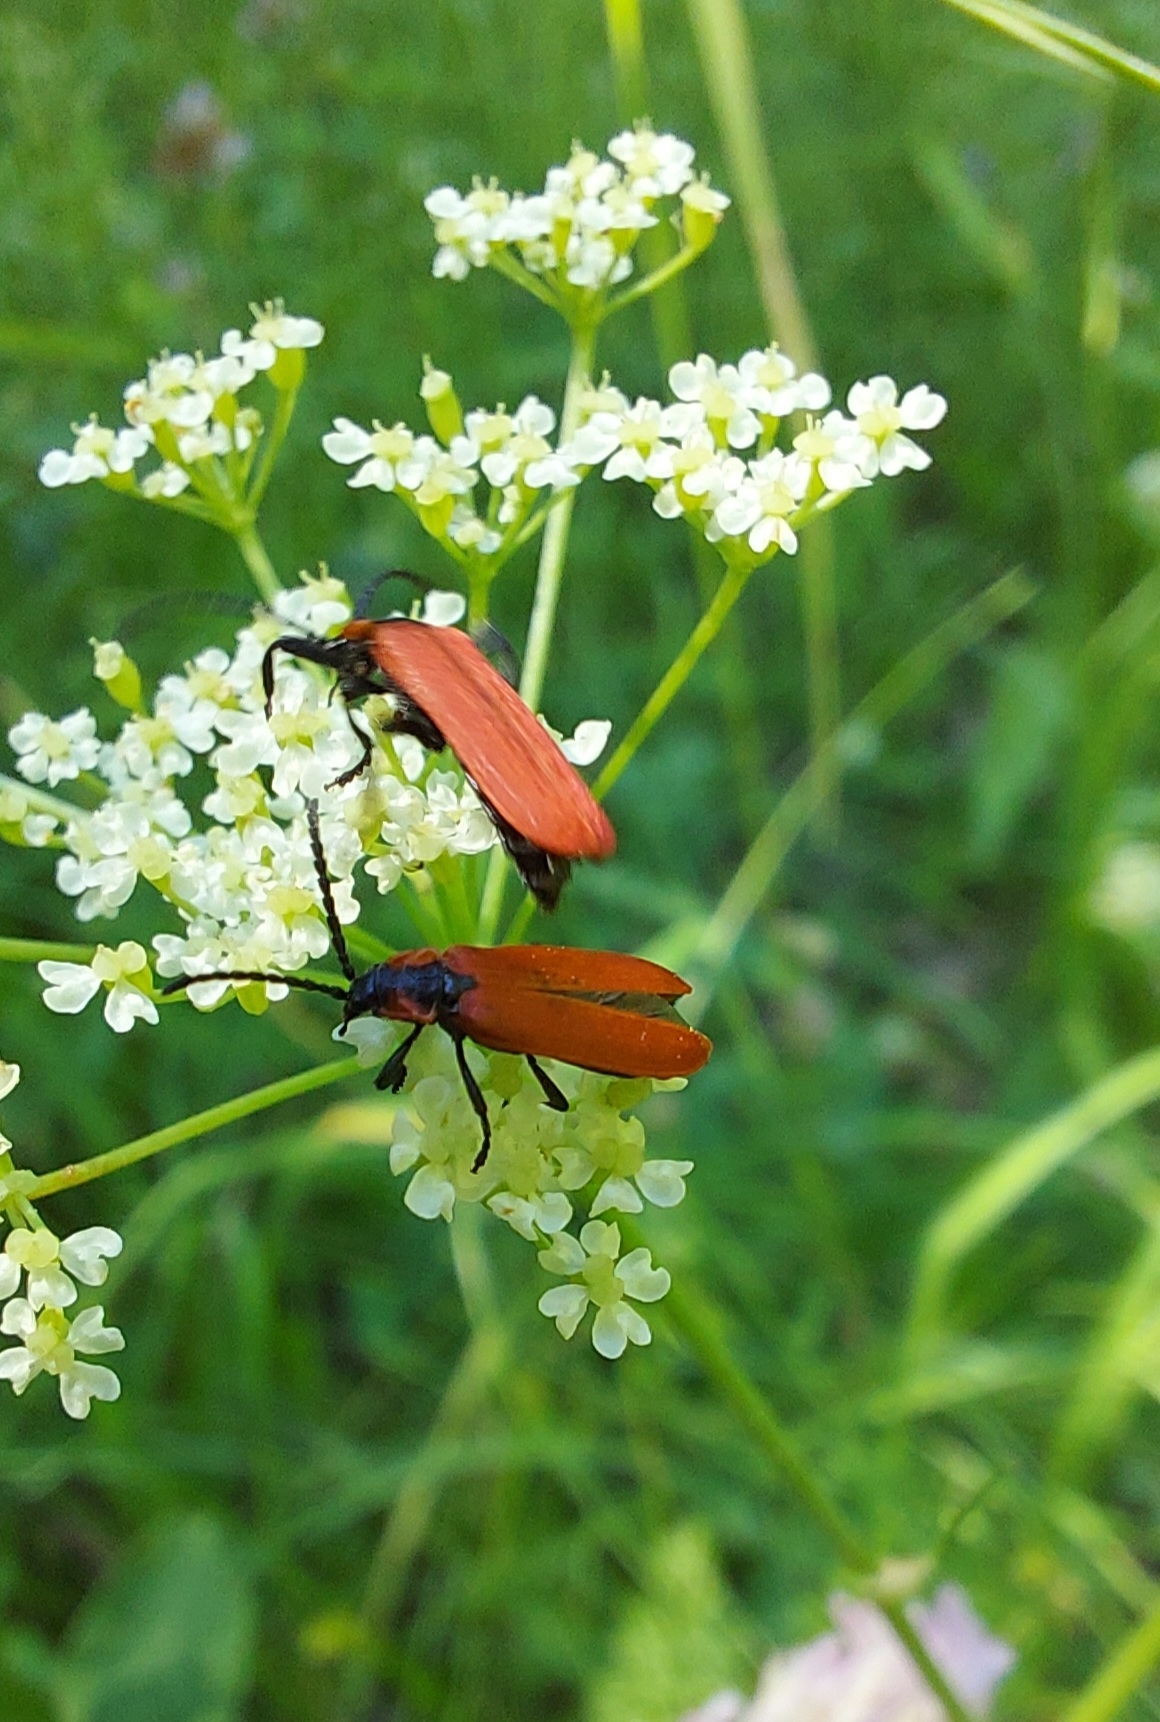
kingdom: Animalia
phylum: Arthropoda
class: Insecta
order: Coleoptera
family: Lycidae
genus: Lygistopterus
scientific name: Lygistopterus sanguineus
